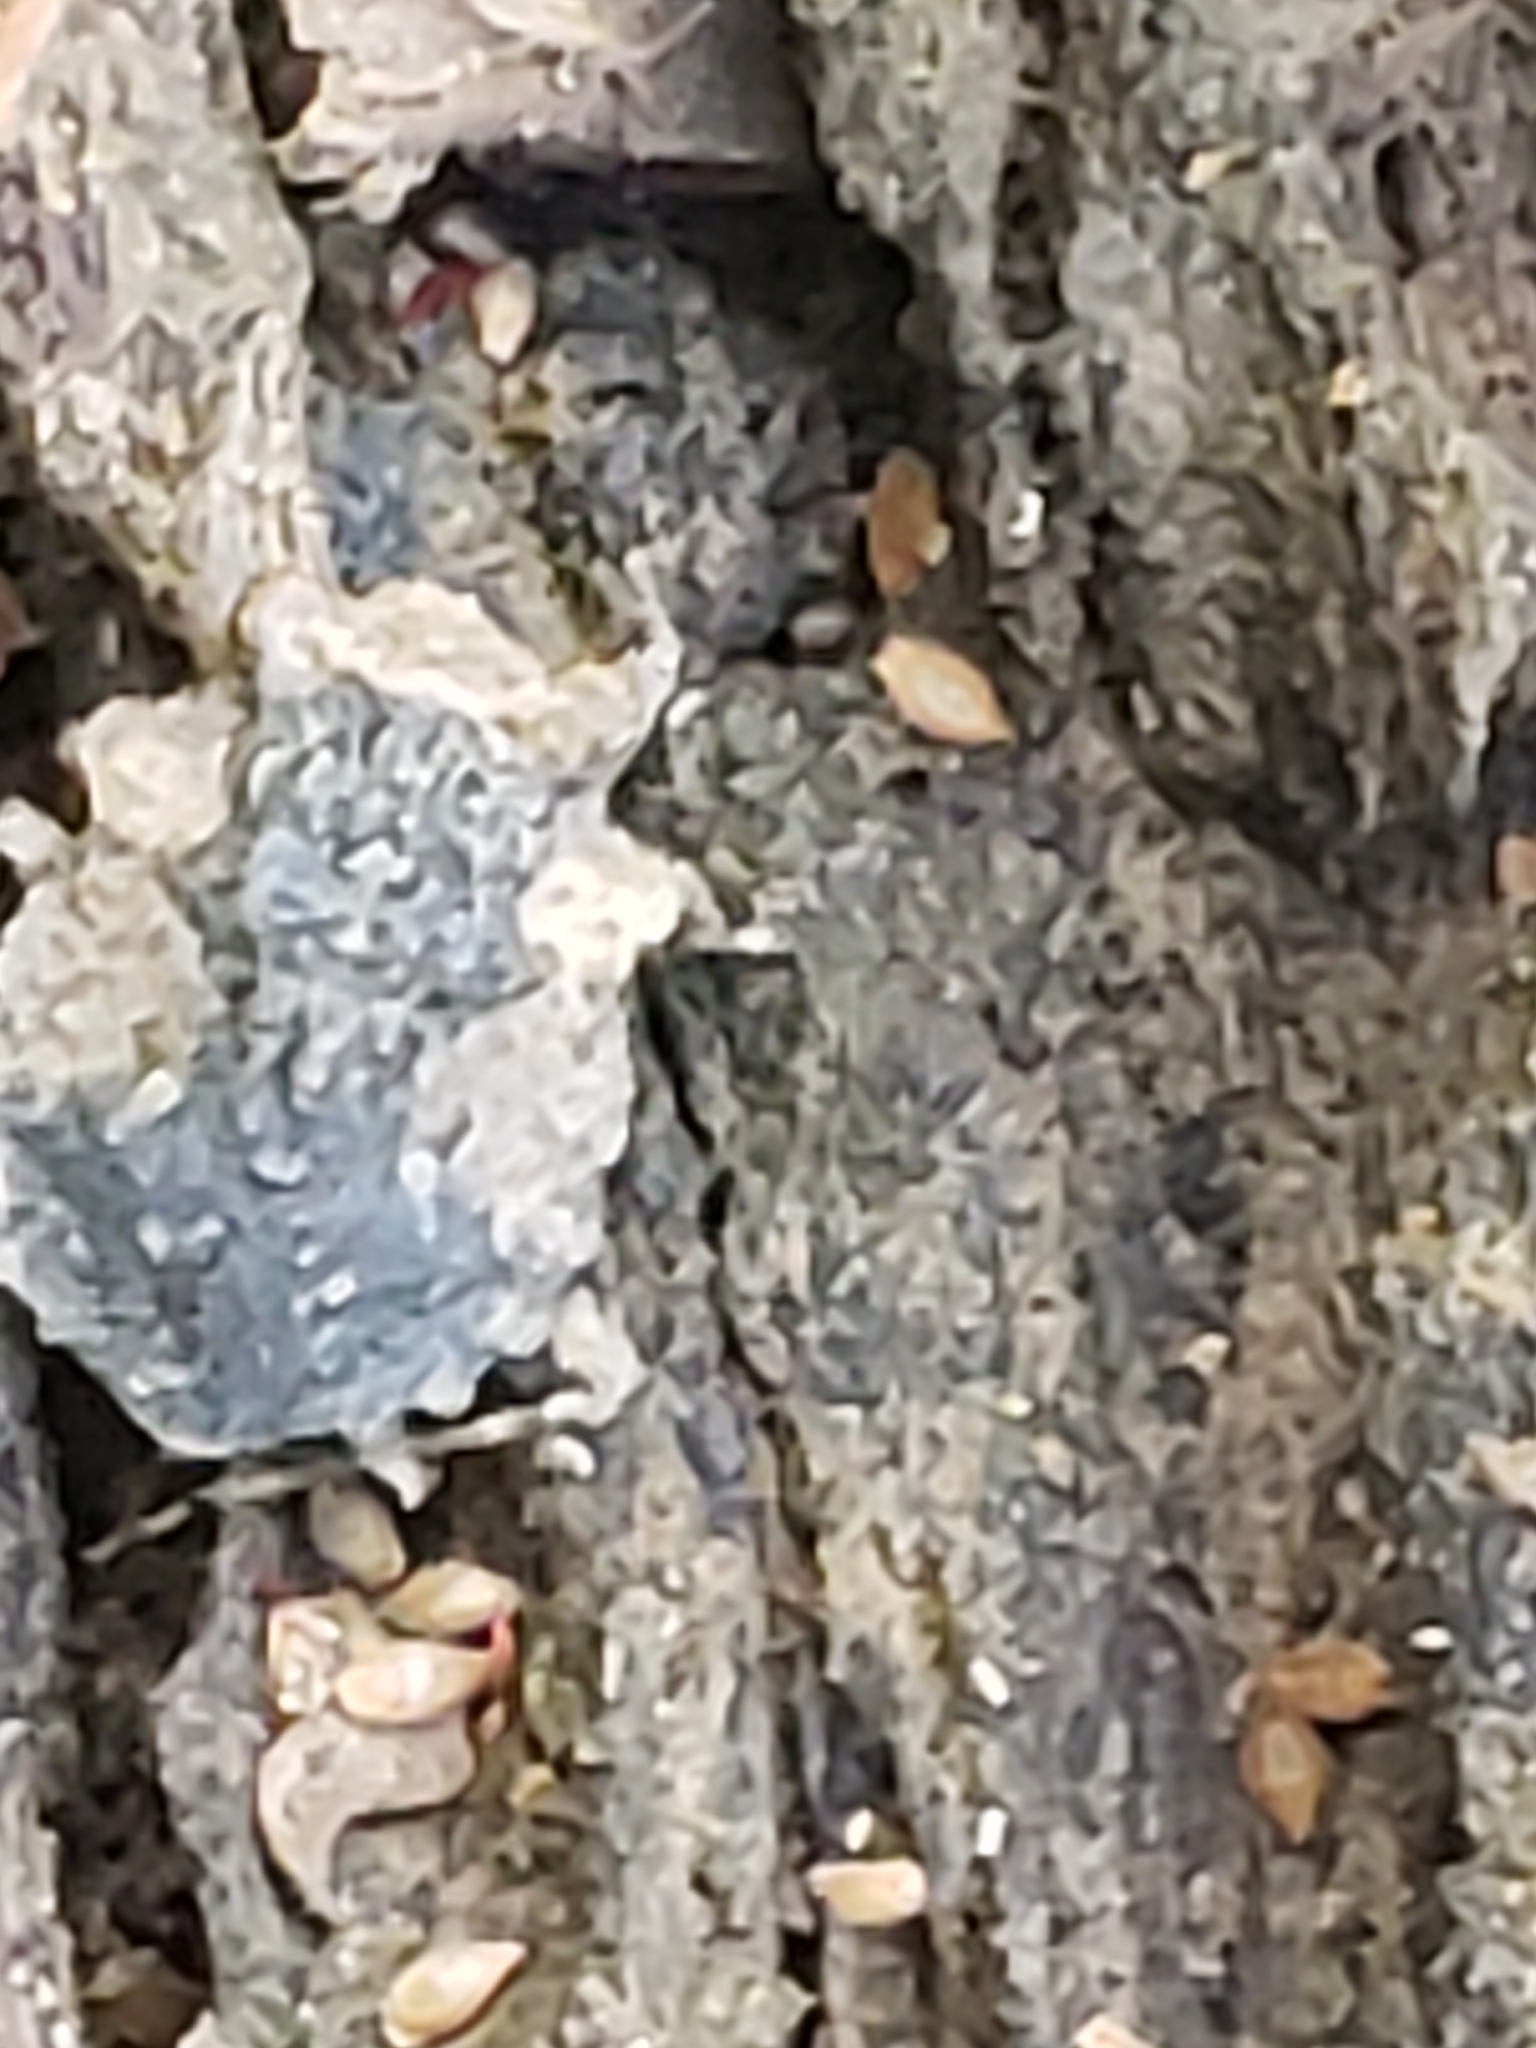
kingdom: Animalia
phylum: Arthropoda
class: Insecta
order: Hemiptera
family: Gelastocoridae
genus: Gelastocoris
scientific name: Gelastocoris oculatus
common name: Toad bug
